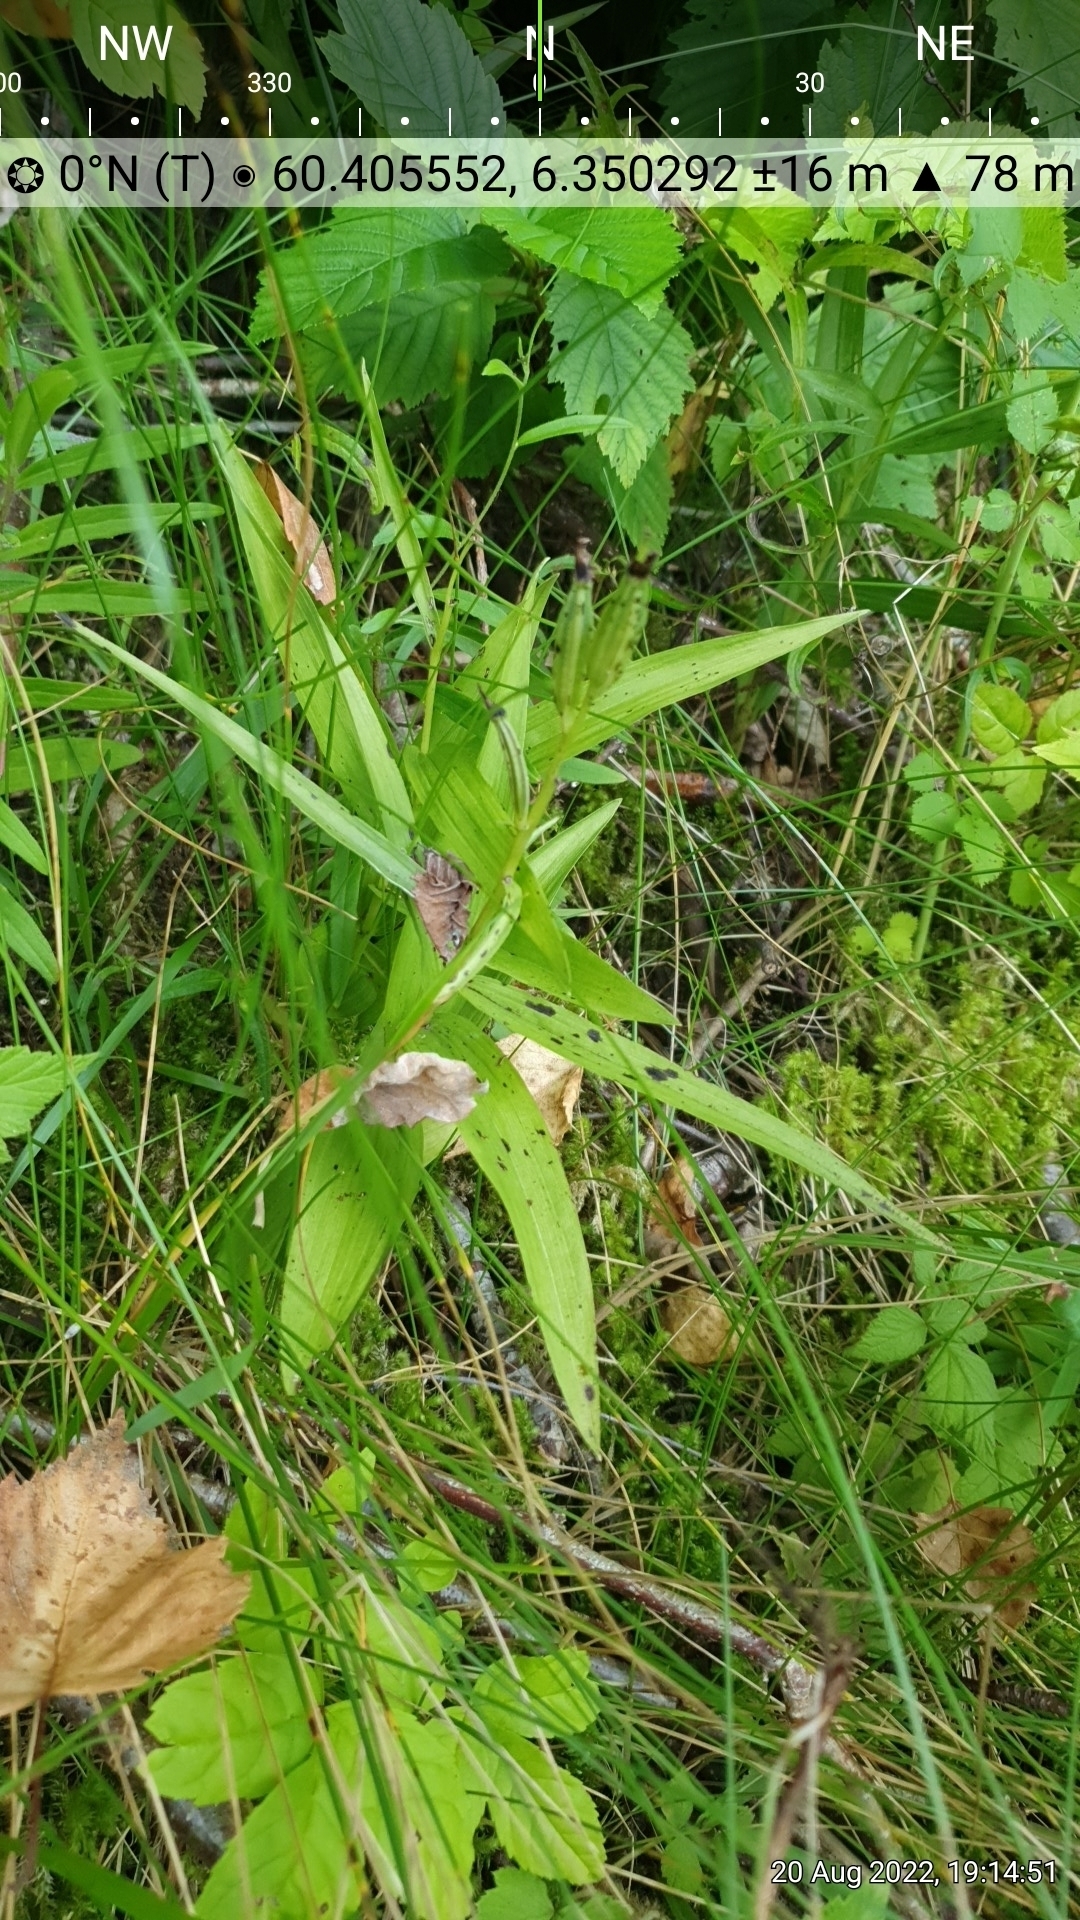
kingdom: Plantae
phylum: Tracheophyta
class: Liliopsida
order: Asparagales
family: Orchidaceae
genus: Cephalanthera
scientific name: Cephalanthera longifolia
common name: Narrow-leaved helleborine
